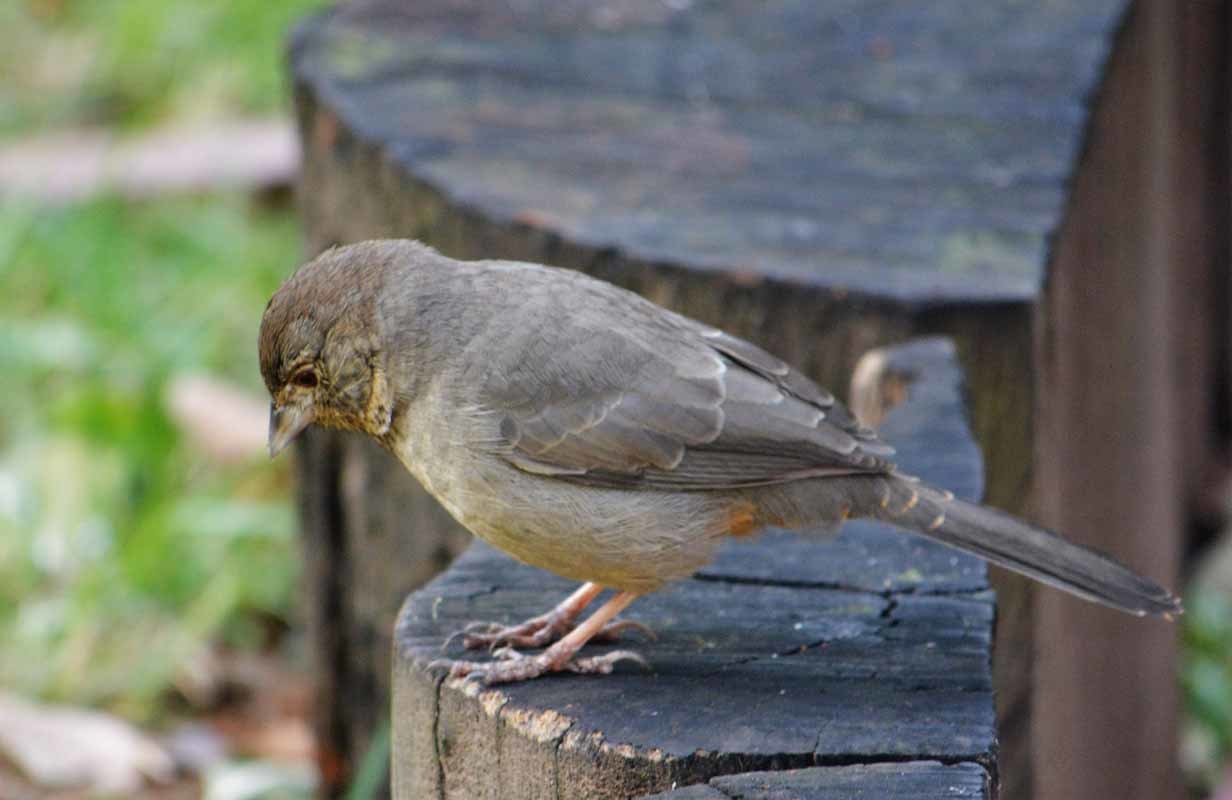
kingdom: Animalia
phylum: Chordata
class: Aves
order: Passeriformes
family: Passerellidae
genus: Melozone
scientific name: Melozone fusca
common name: Canyon towhee
